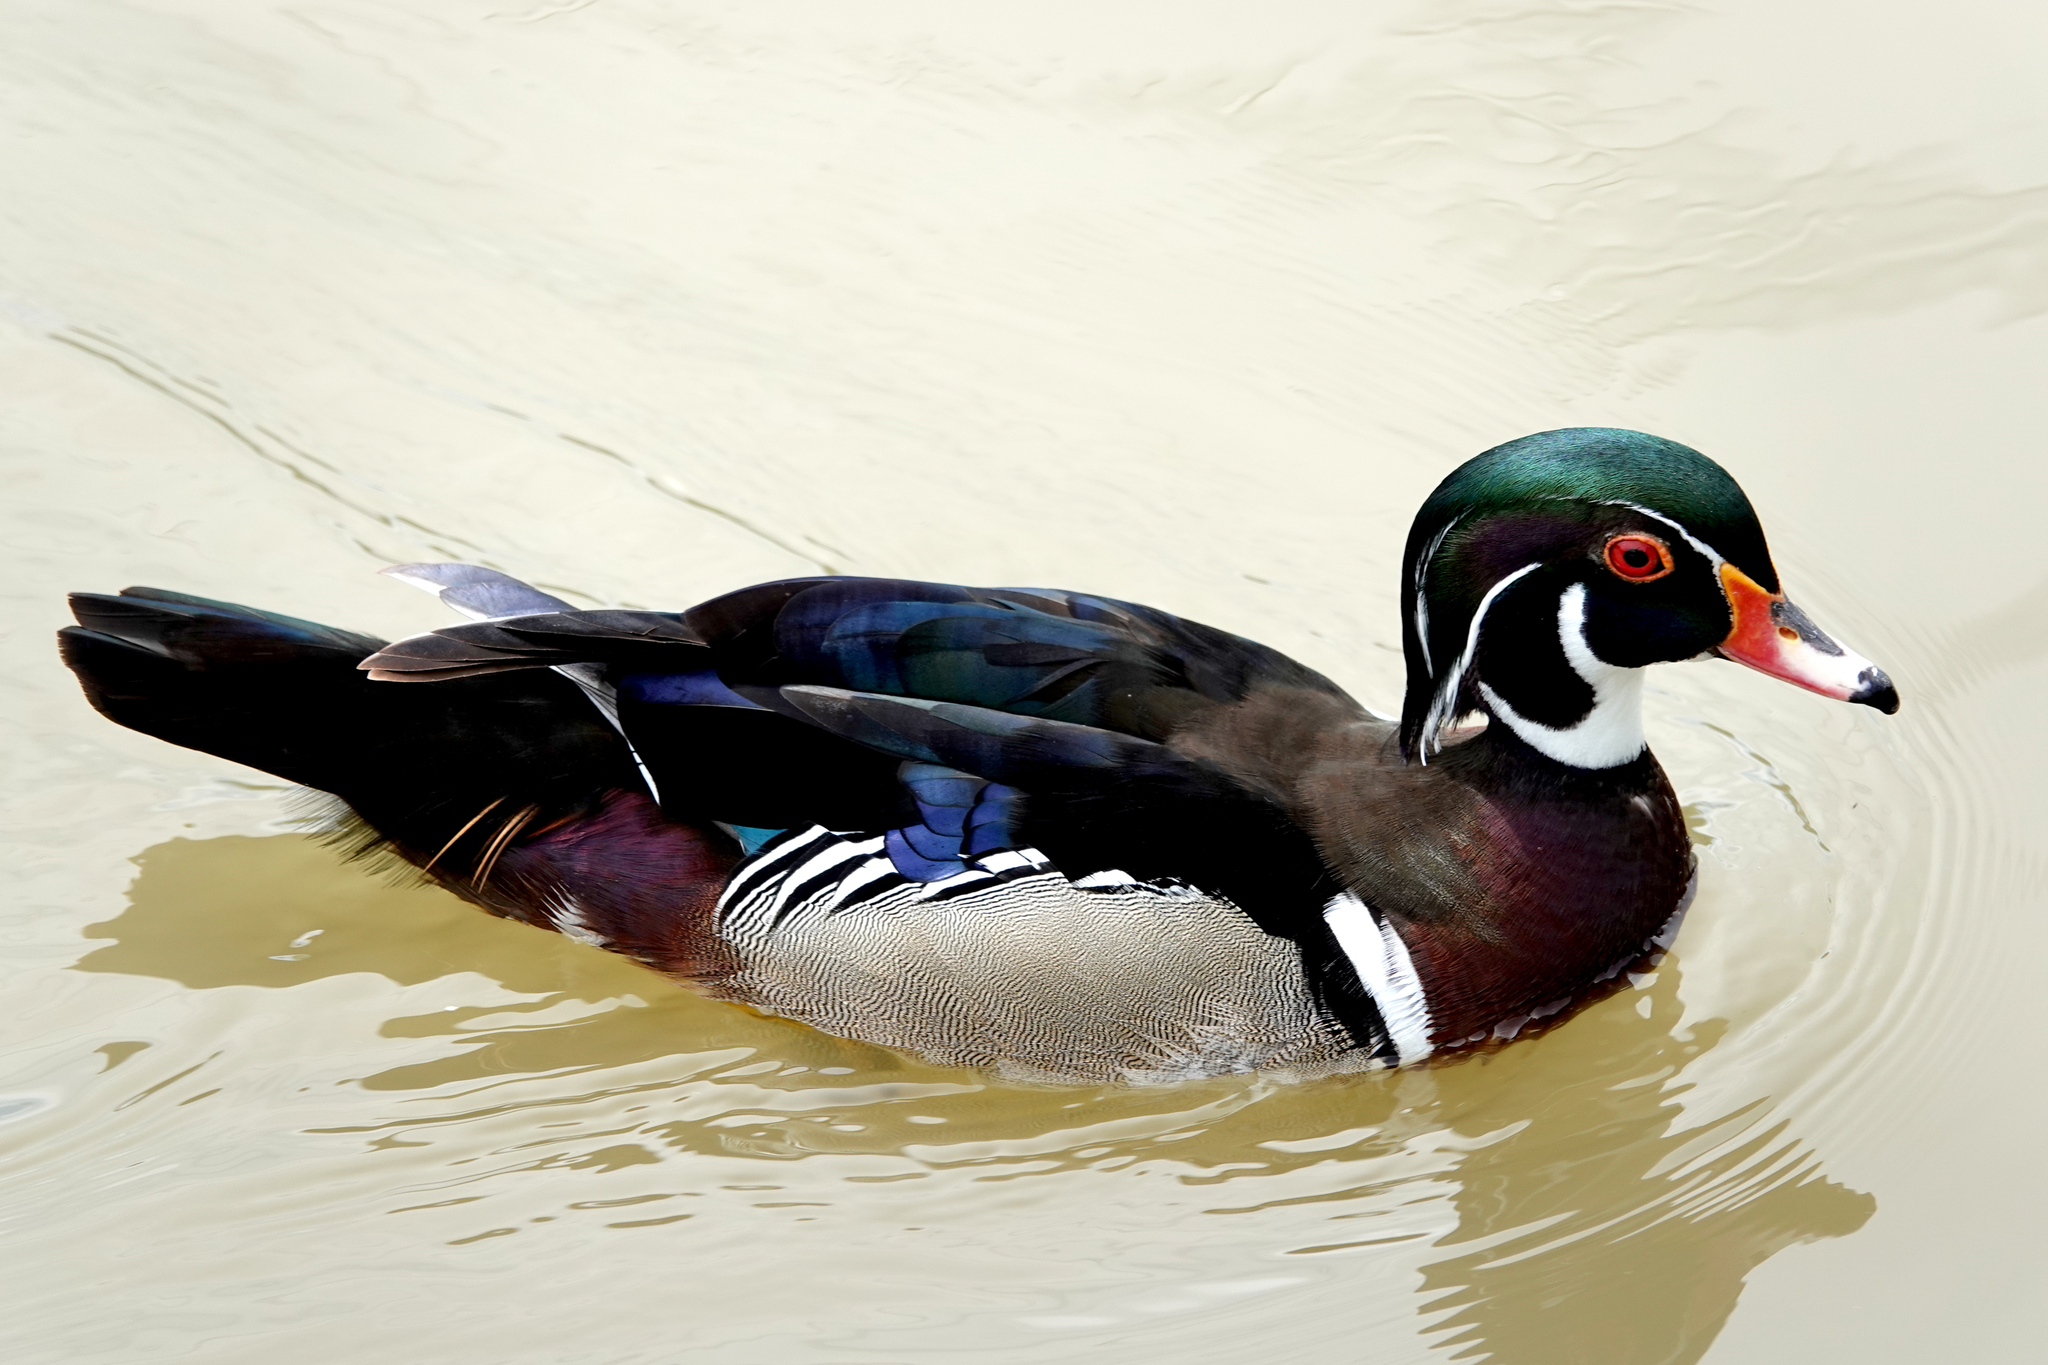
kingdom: Animalia
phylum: Chordata
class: Aves
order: Anseriformes
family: Anatidae
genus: Aix
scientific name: Aix sponsa
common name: Wood duck
